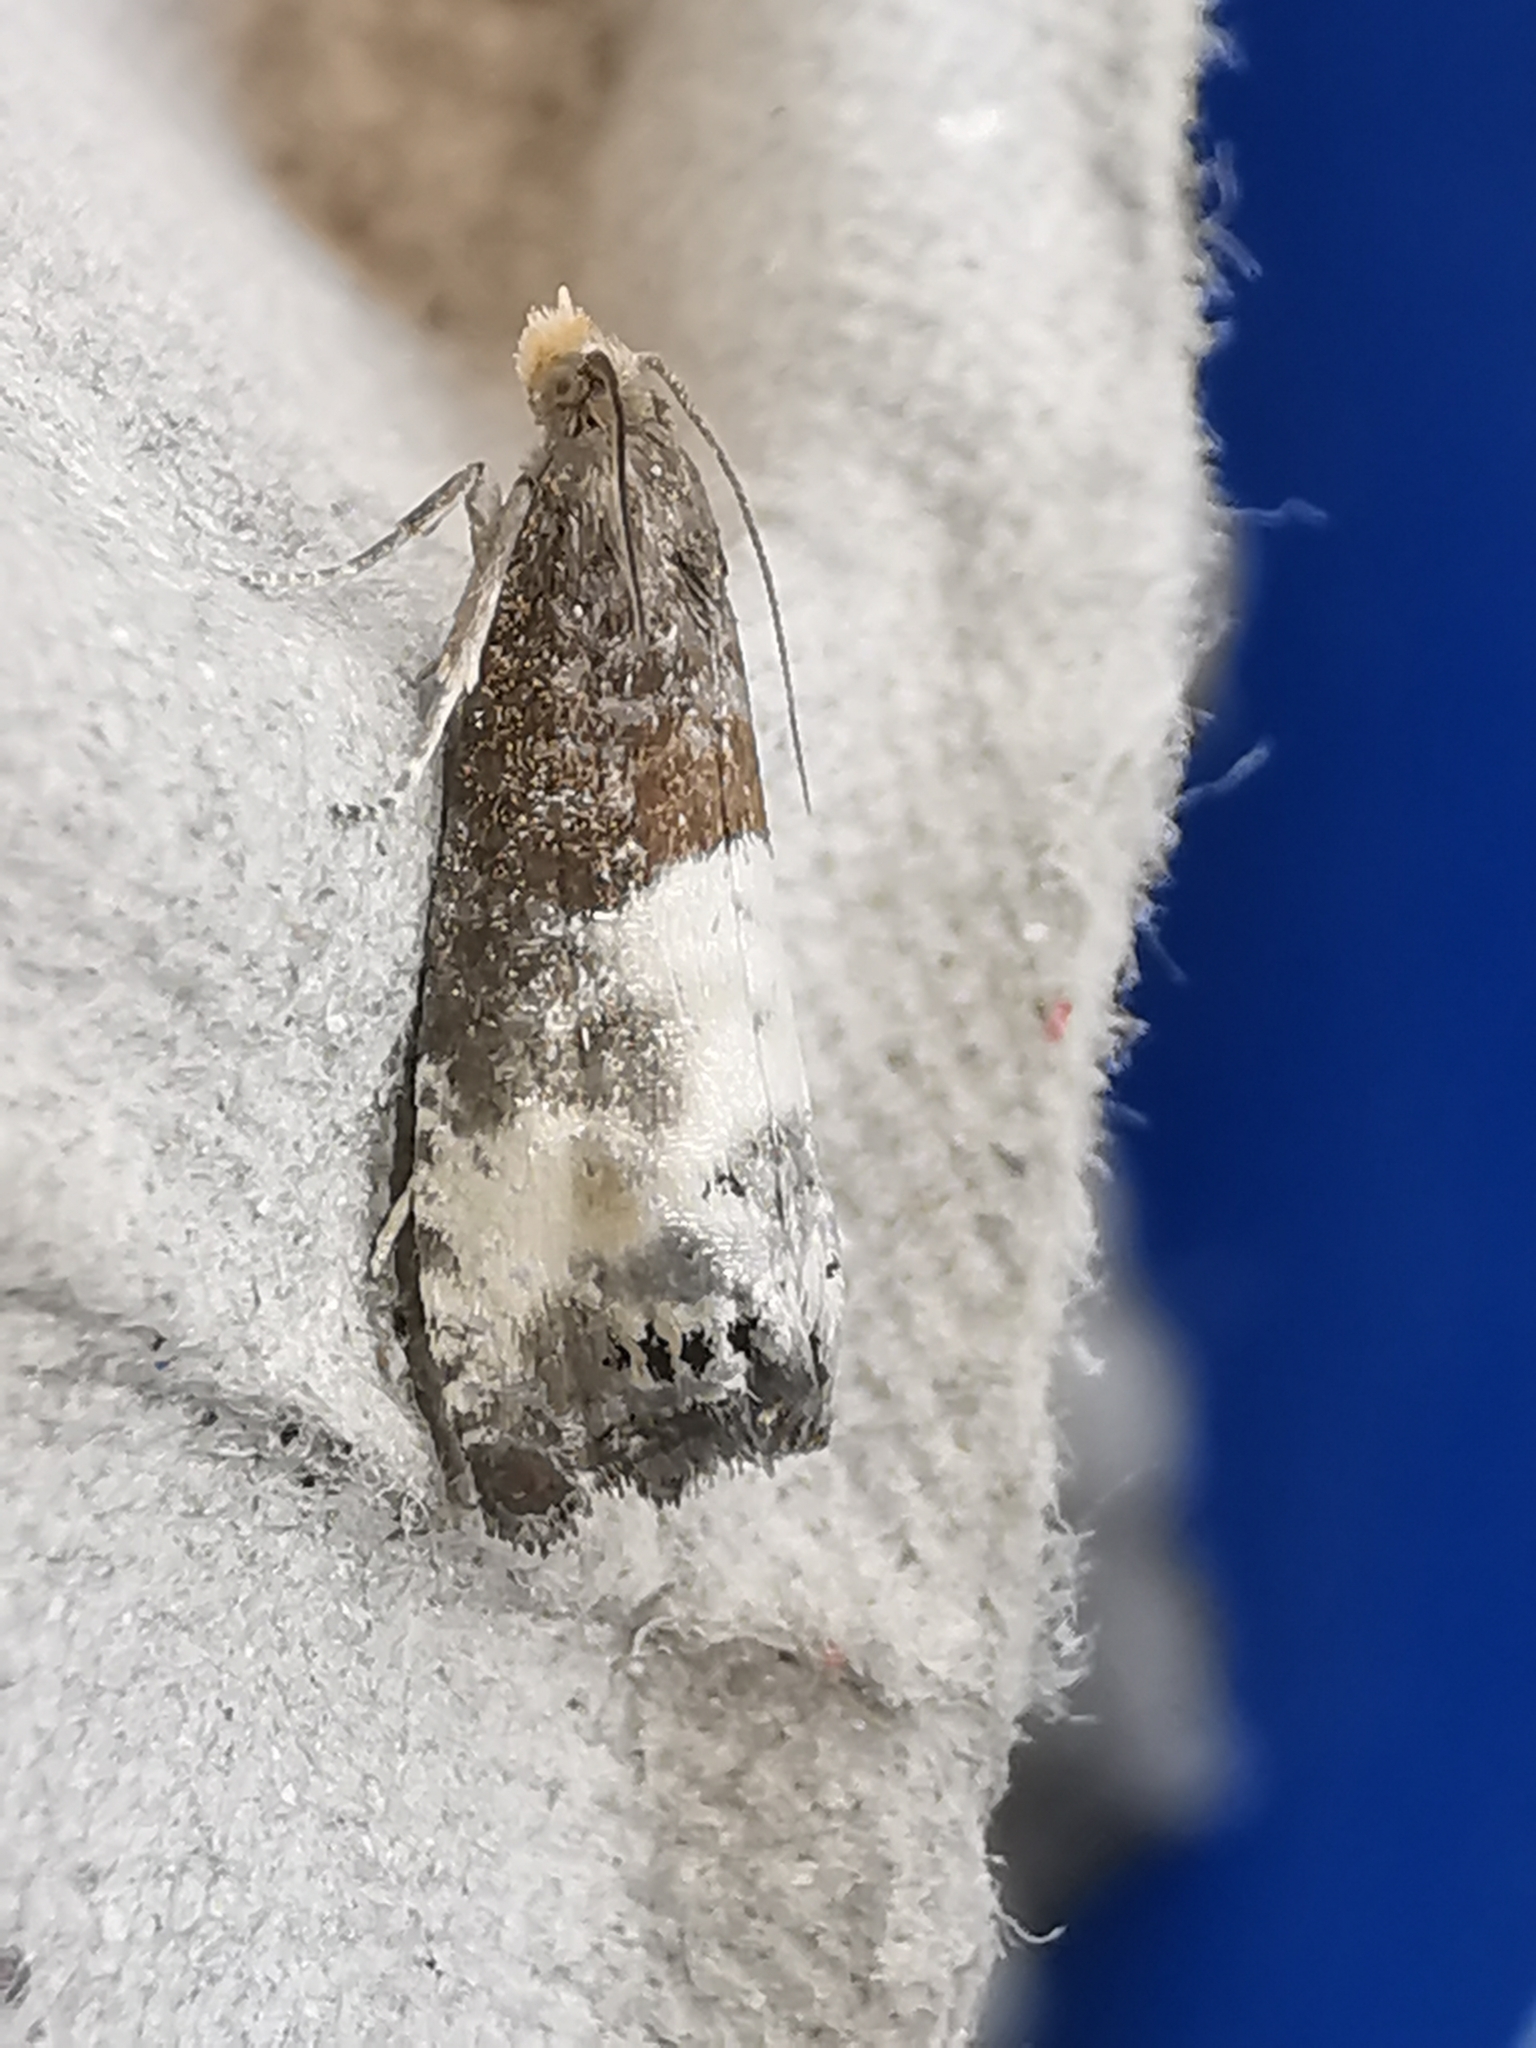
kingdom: Animalia
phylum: Arthropoda
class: Insecta
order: Lepidoptera
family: Tortricidae
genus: Notocelia
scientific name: Notocelia cynosbatella
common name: Yellow-faced bell moth
